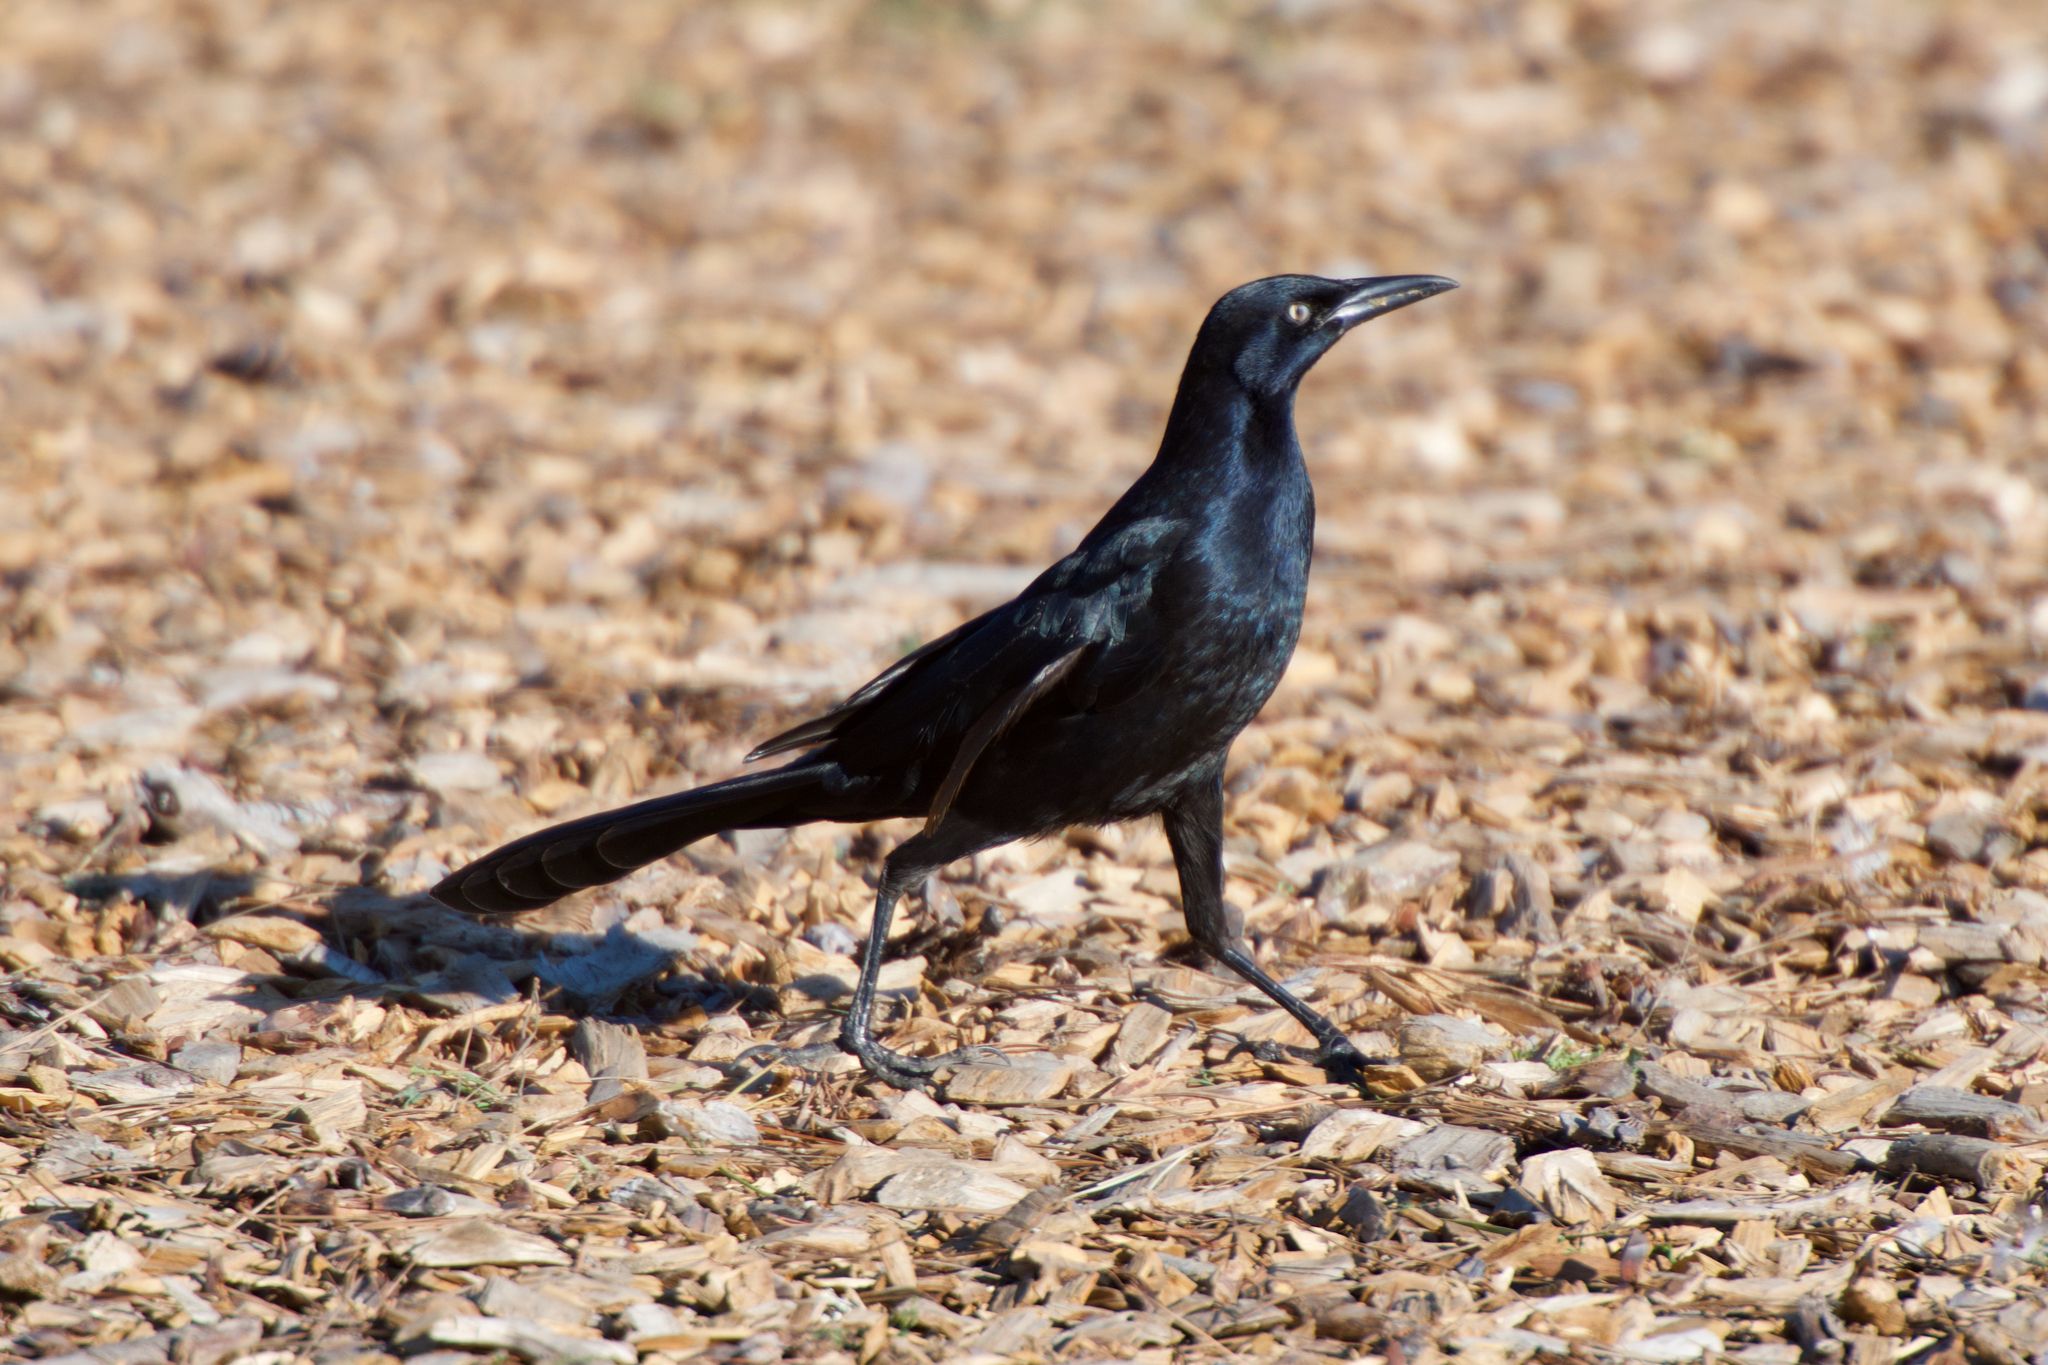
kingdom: Animalia
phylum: Chordata
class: Aves
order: Passeriformes
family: Icteridae
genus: Quiscalus
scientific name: Quiscalus mexicanus
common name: Great-tailed grackle
